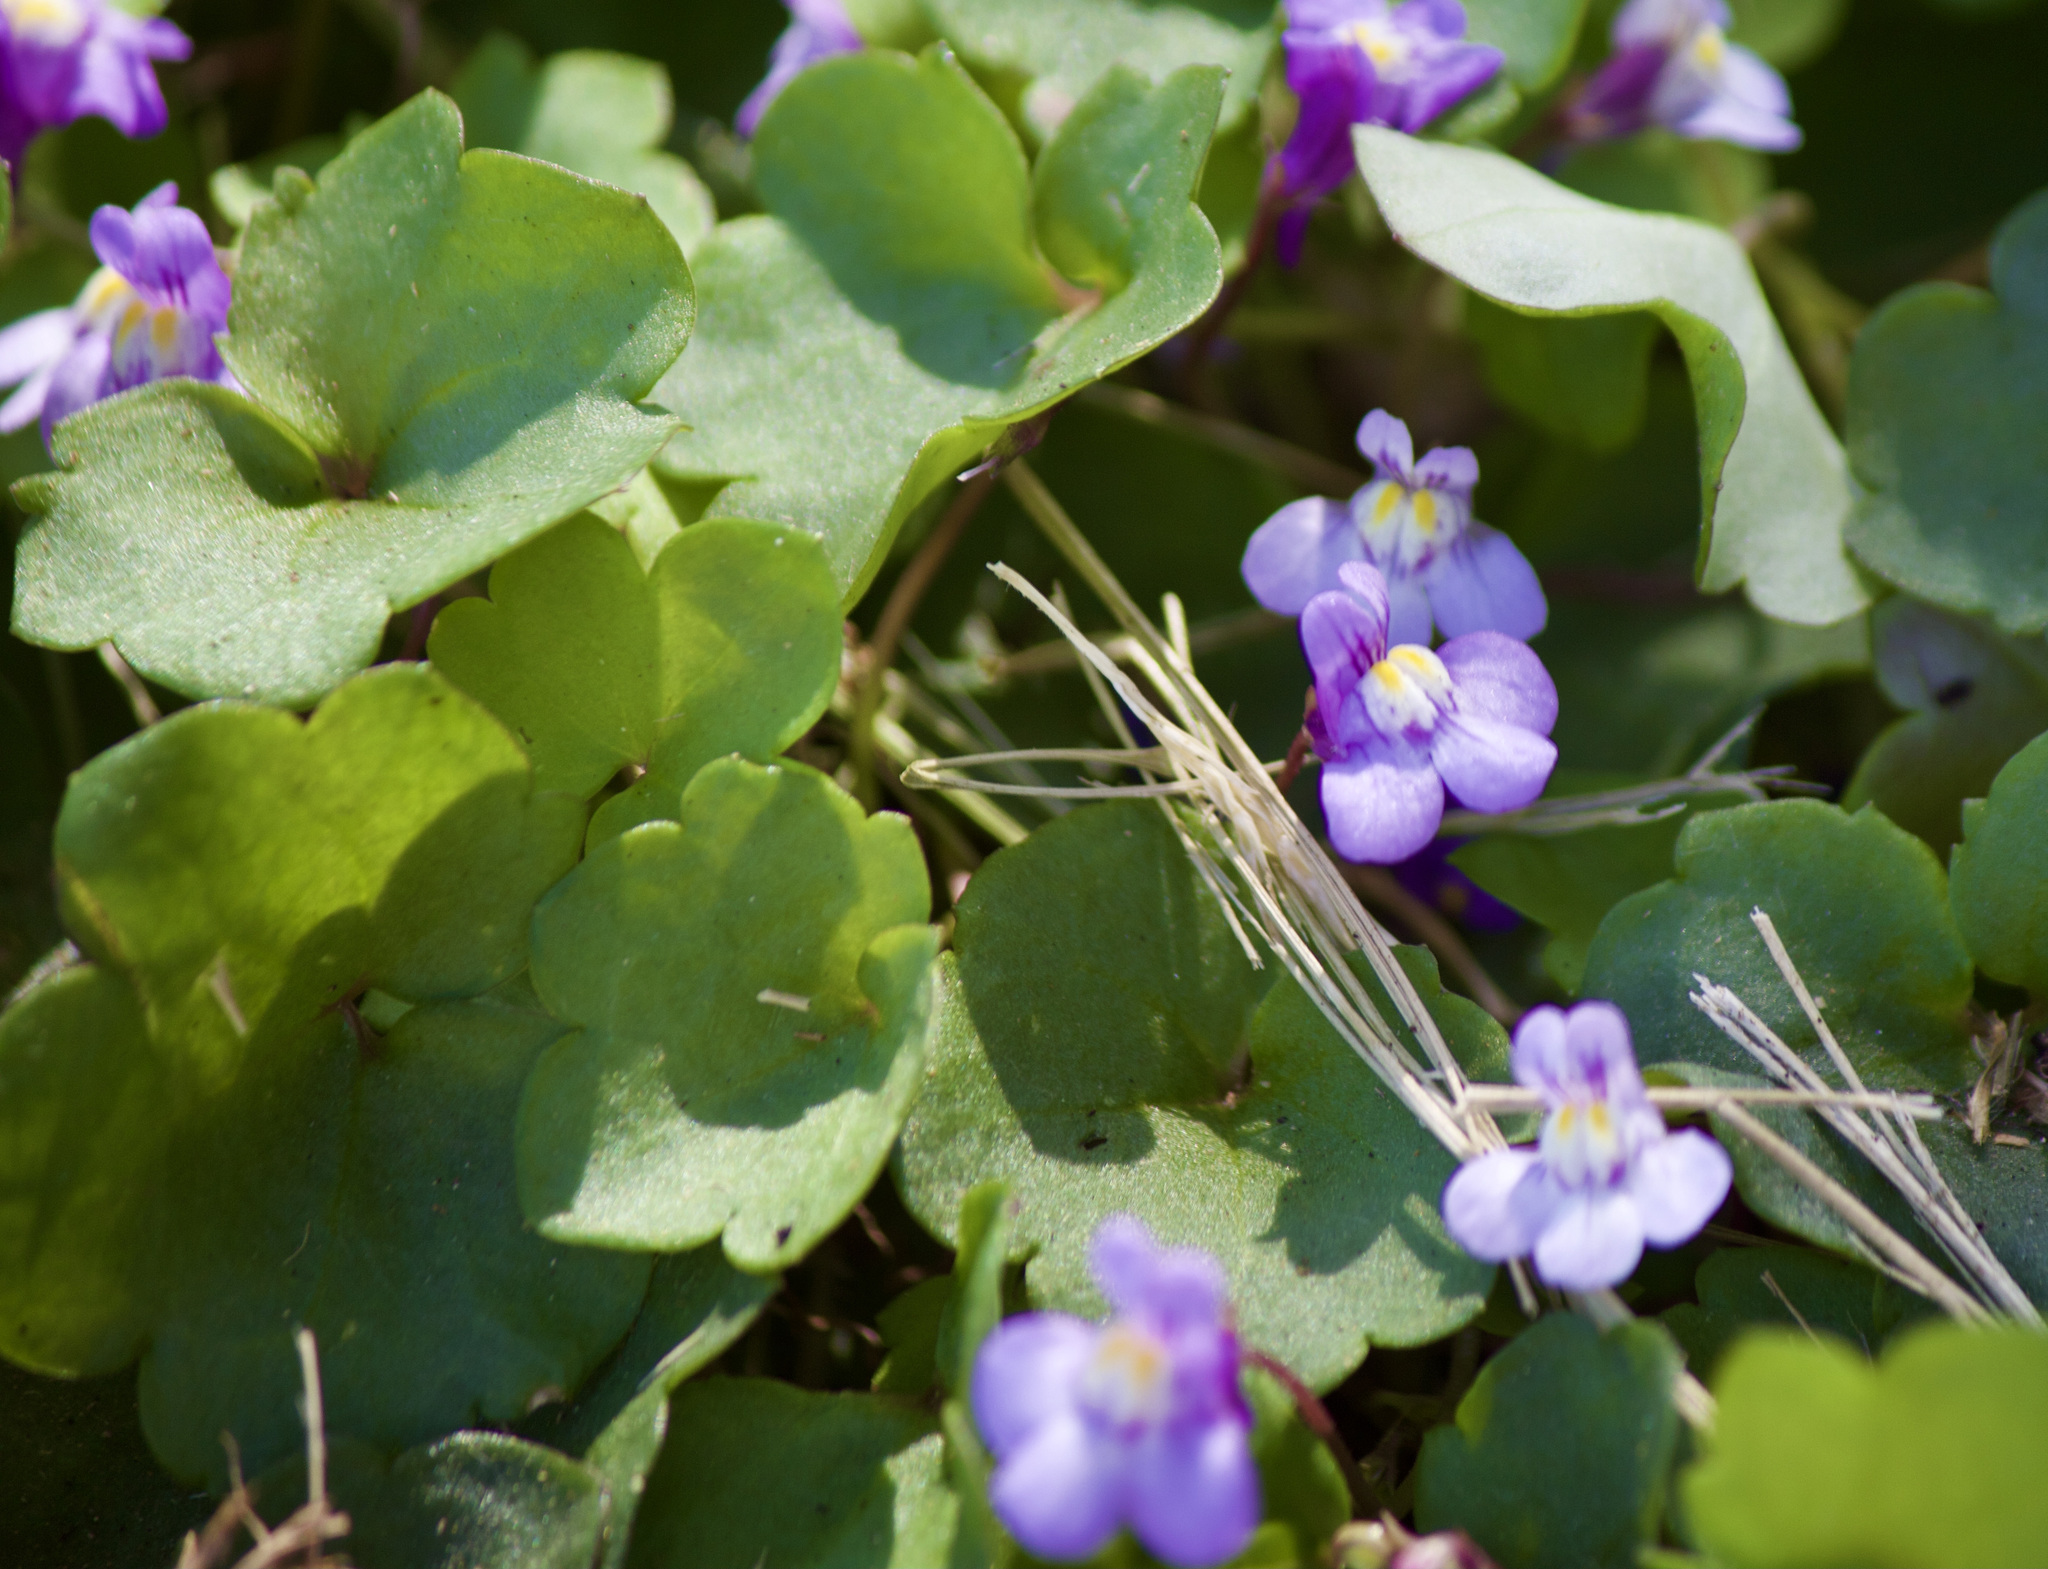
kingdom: Plantae
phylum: Tracheophyta
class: Magnoliopsida
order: Lamiales
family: Plantaginaceae
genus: Cymbalaria
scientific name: Cymbalaria muralis
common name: Ivy-leaved toadflax
